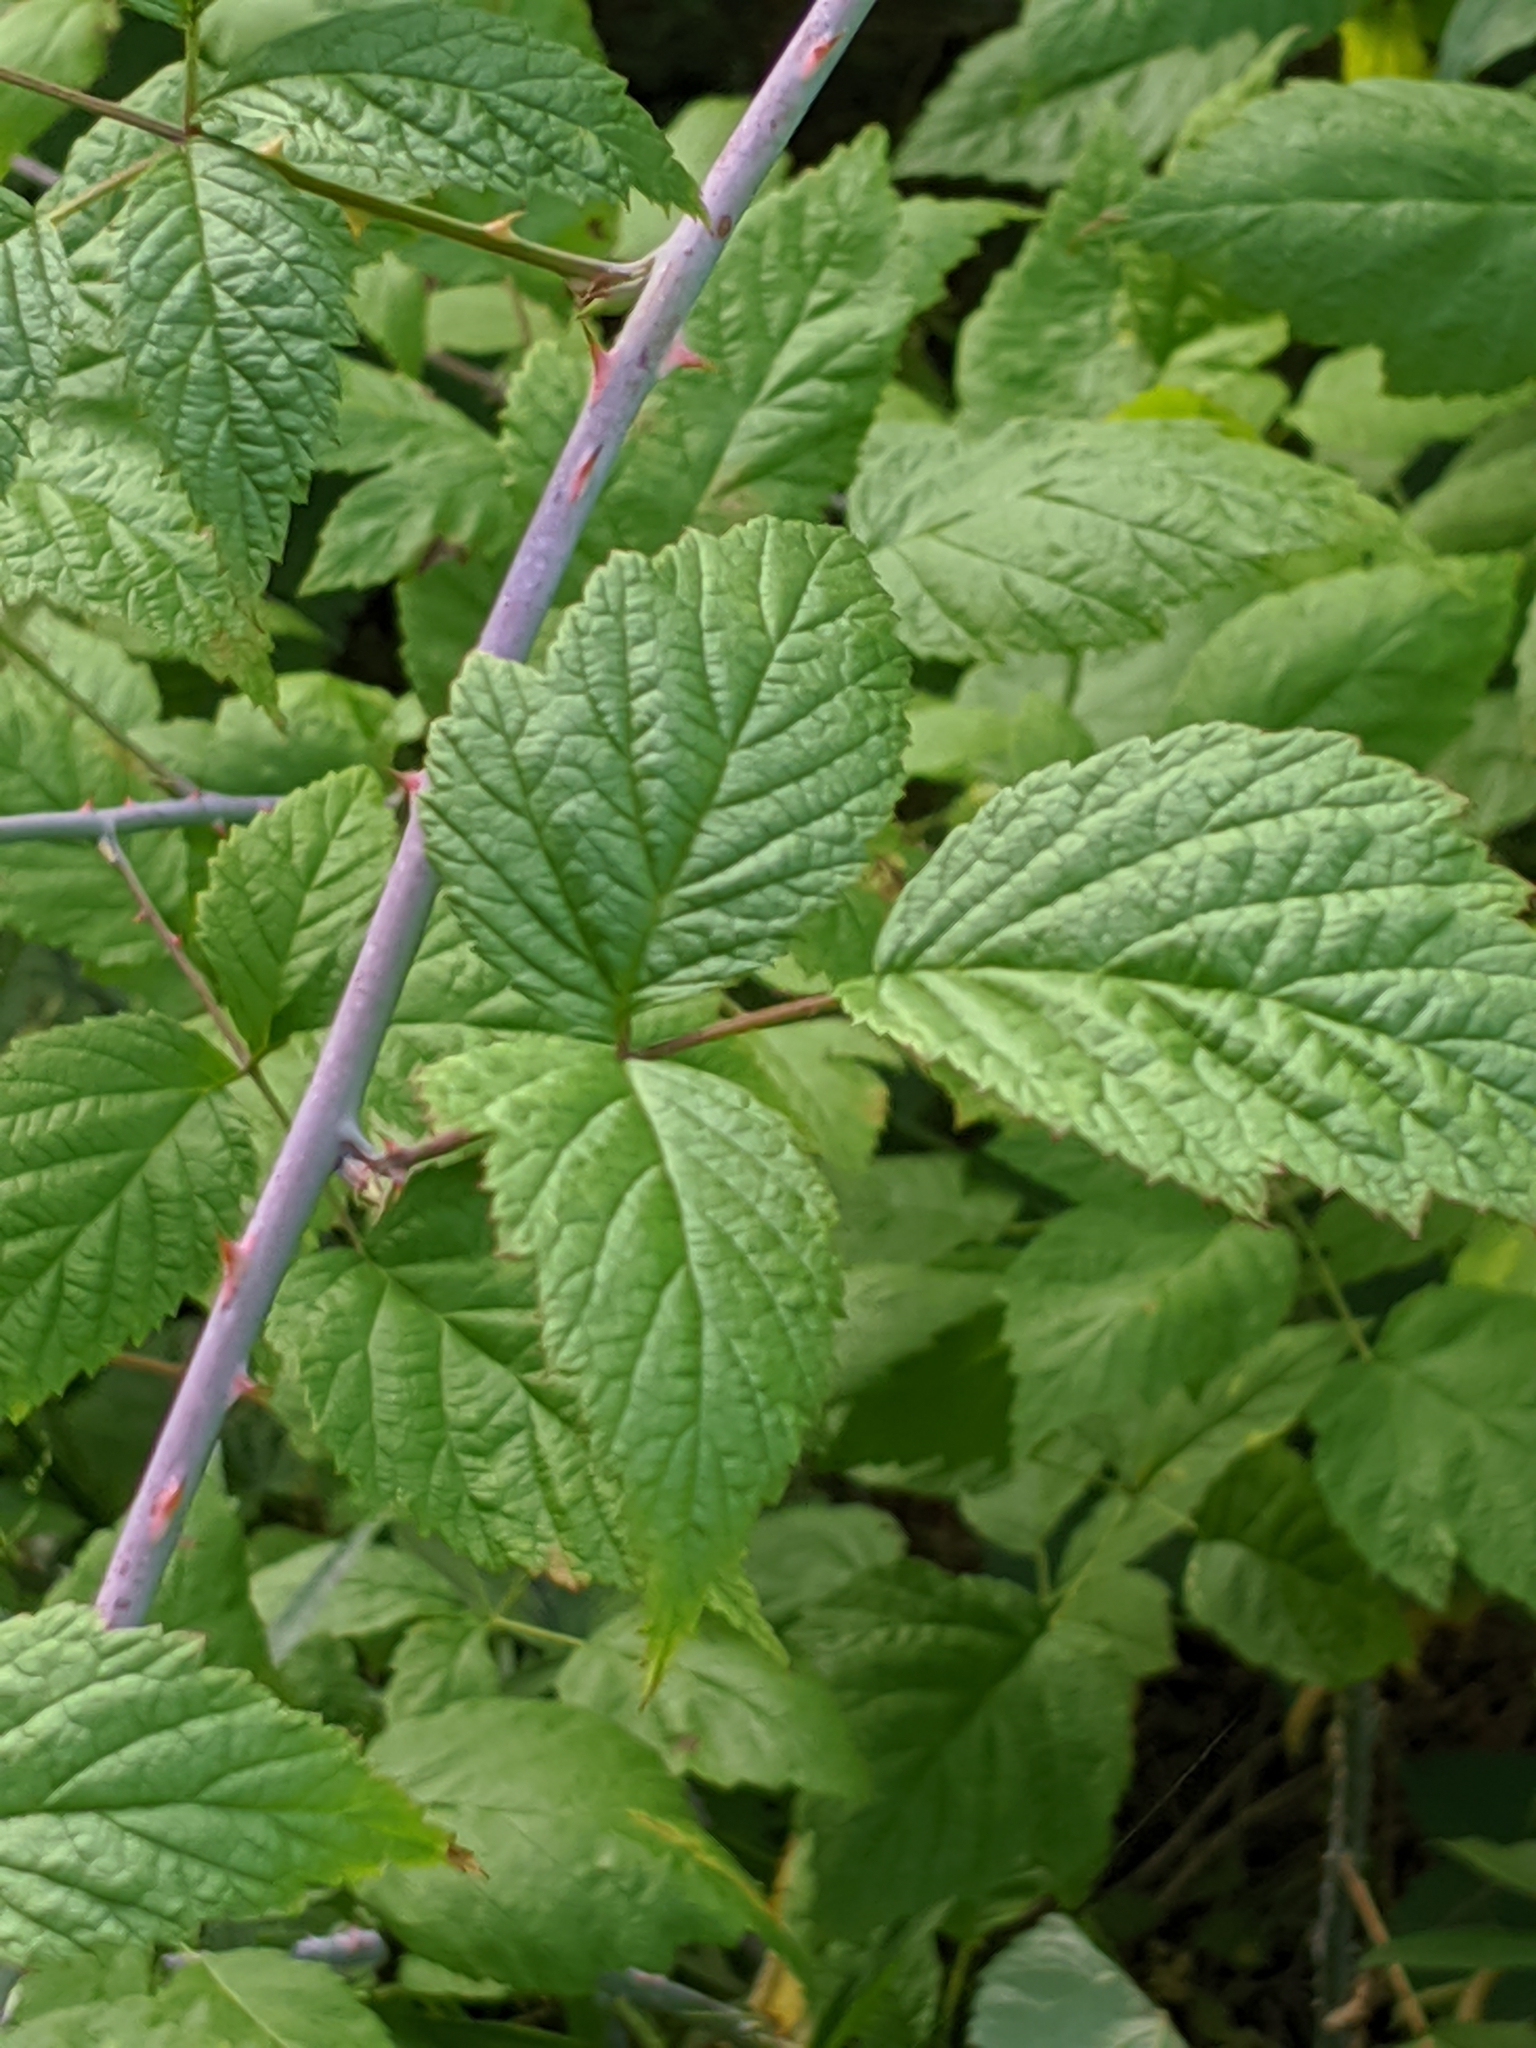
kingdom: Plantae
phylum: Tracheophyta
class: Magnoliopsida
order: Rosales
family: Rosaceae
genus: Rubus
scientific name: Rubus leucodermis
